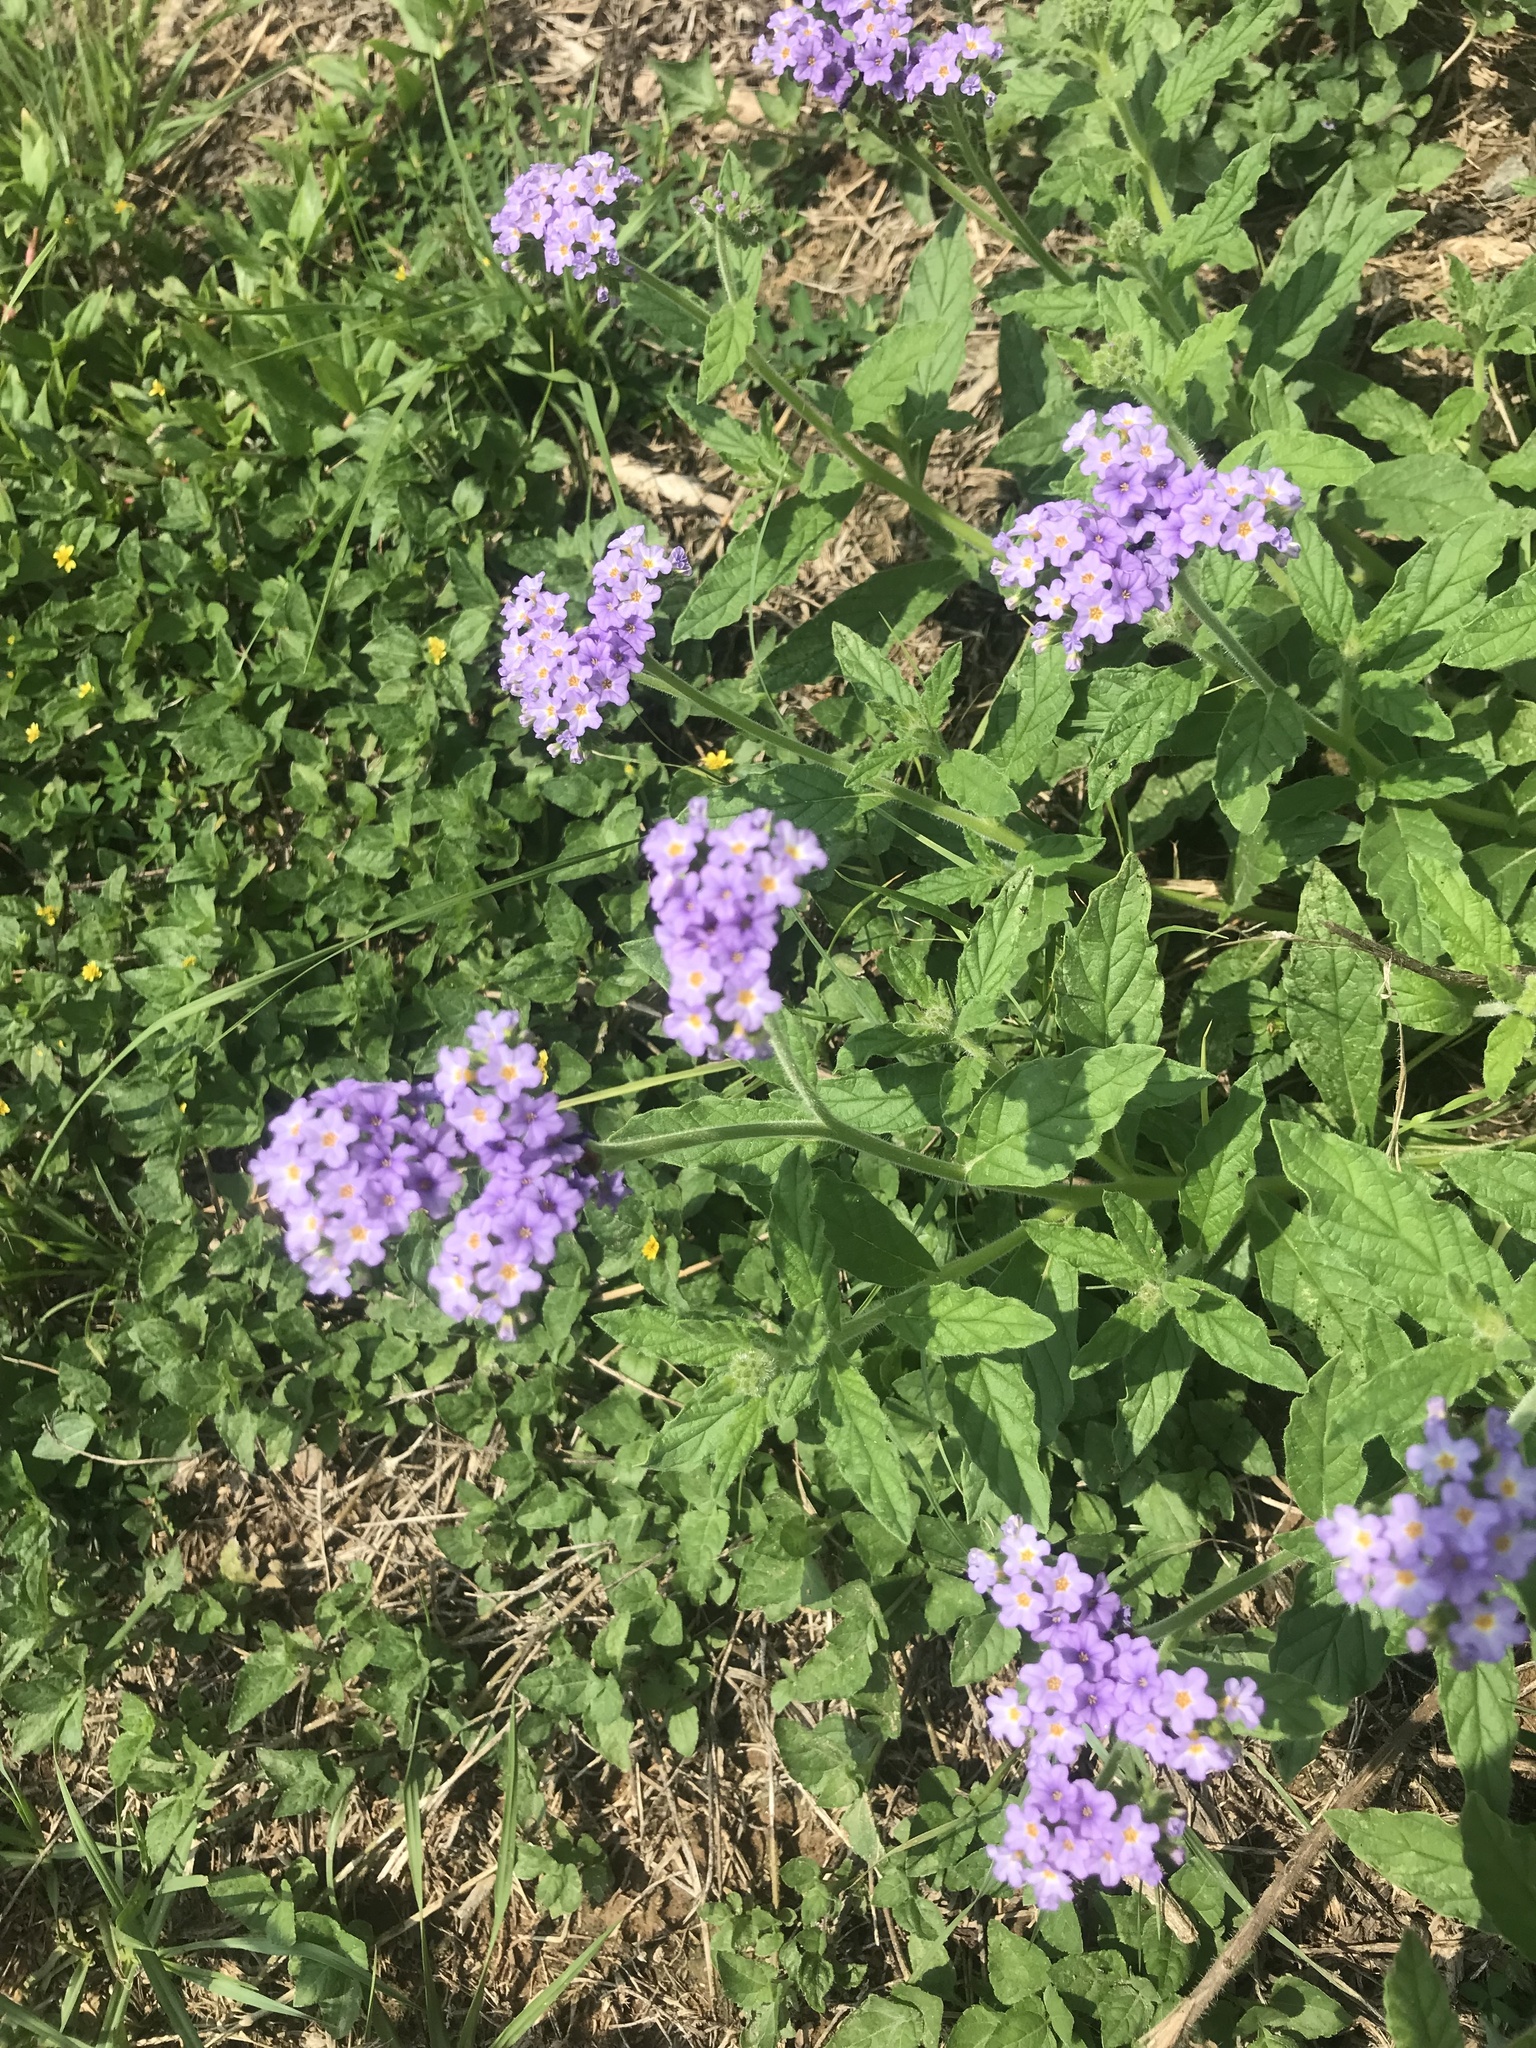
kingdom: Plantae
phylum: Tracheophyta
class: Magnoliopsida
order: Boraginales
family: Heliotropiaceae
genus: Heliotropium
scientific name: Heliotropium amplexicaule
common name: Clasping heliotrope
